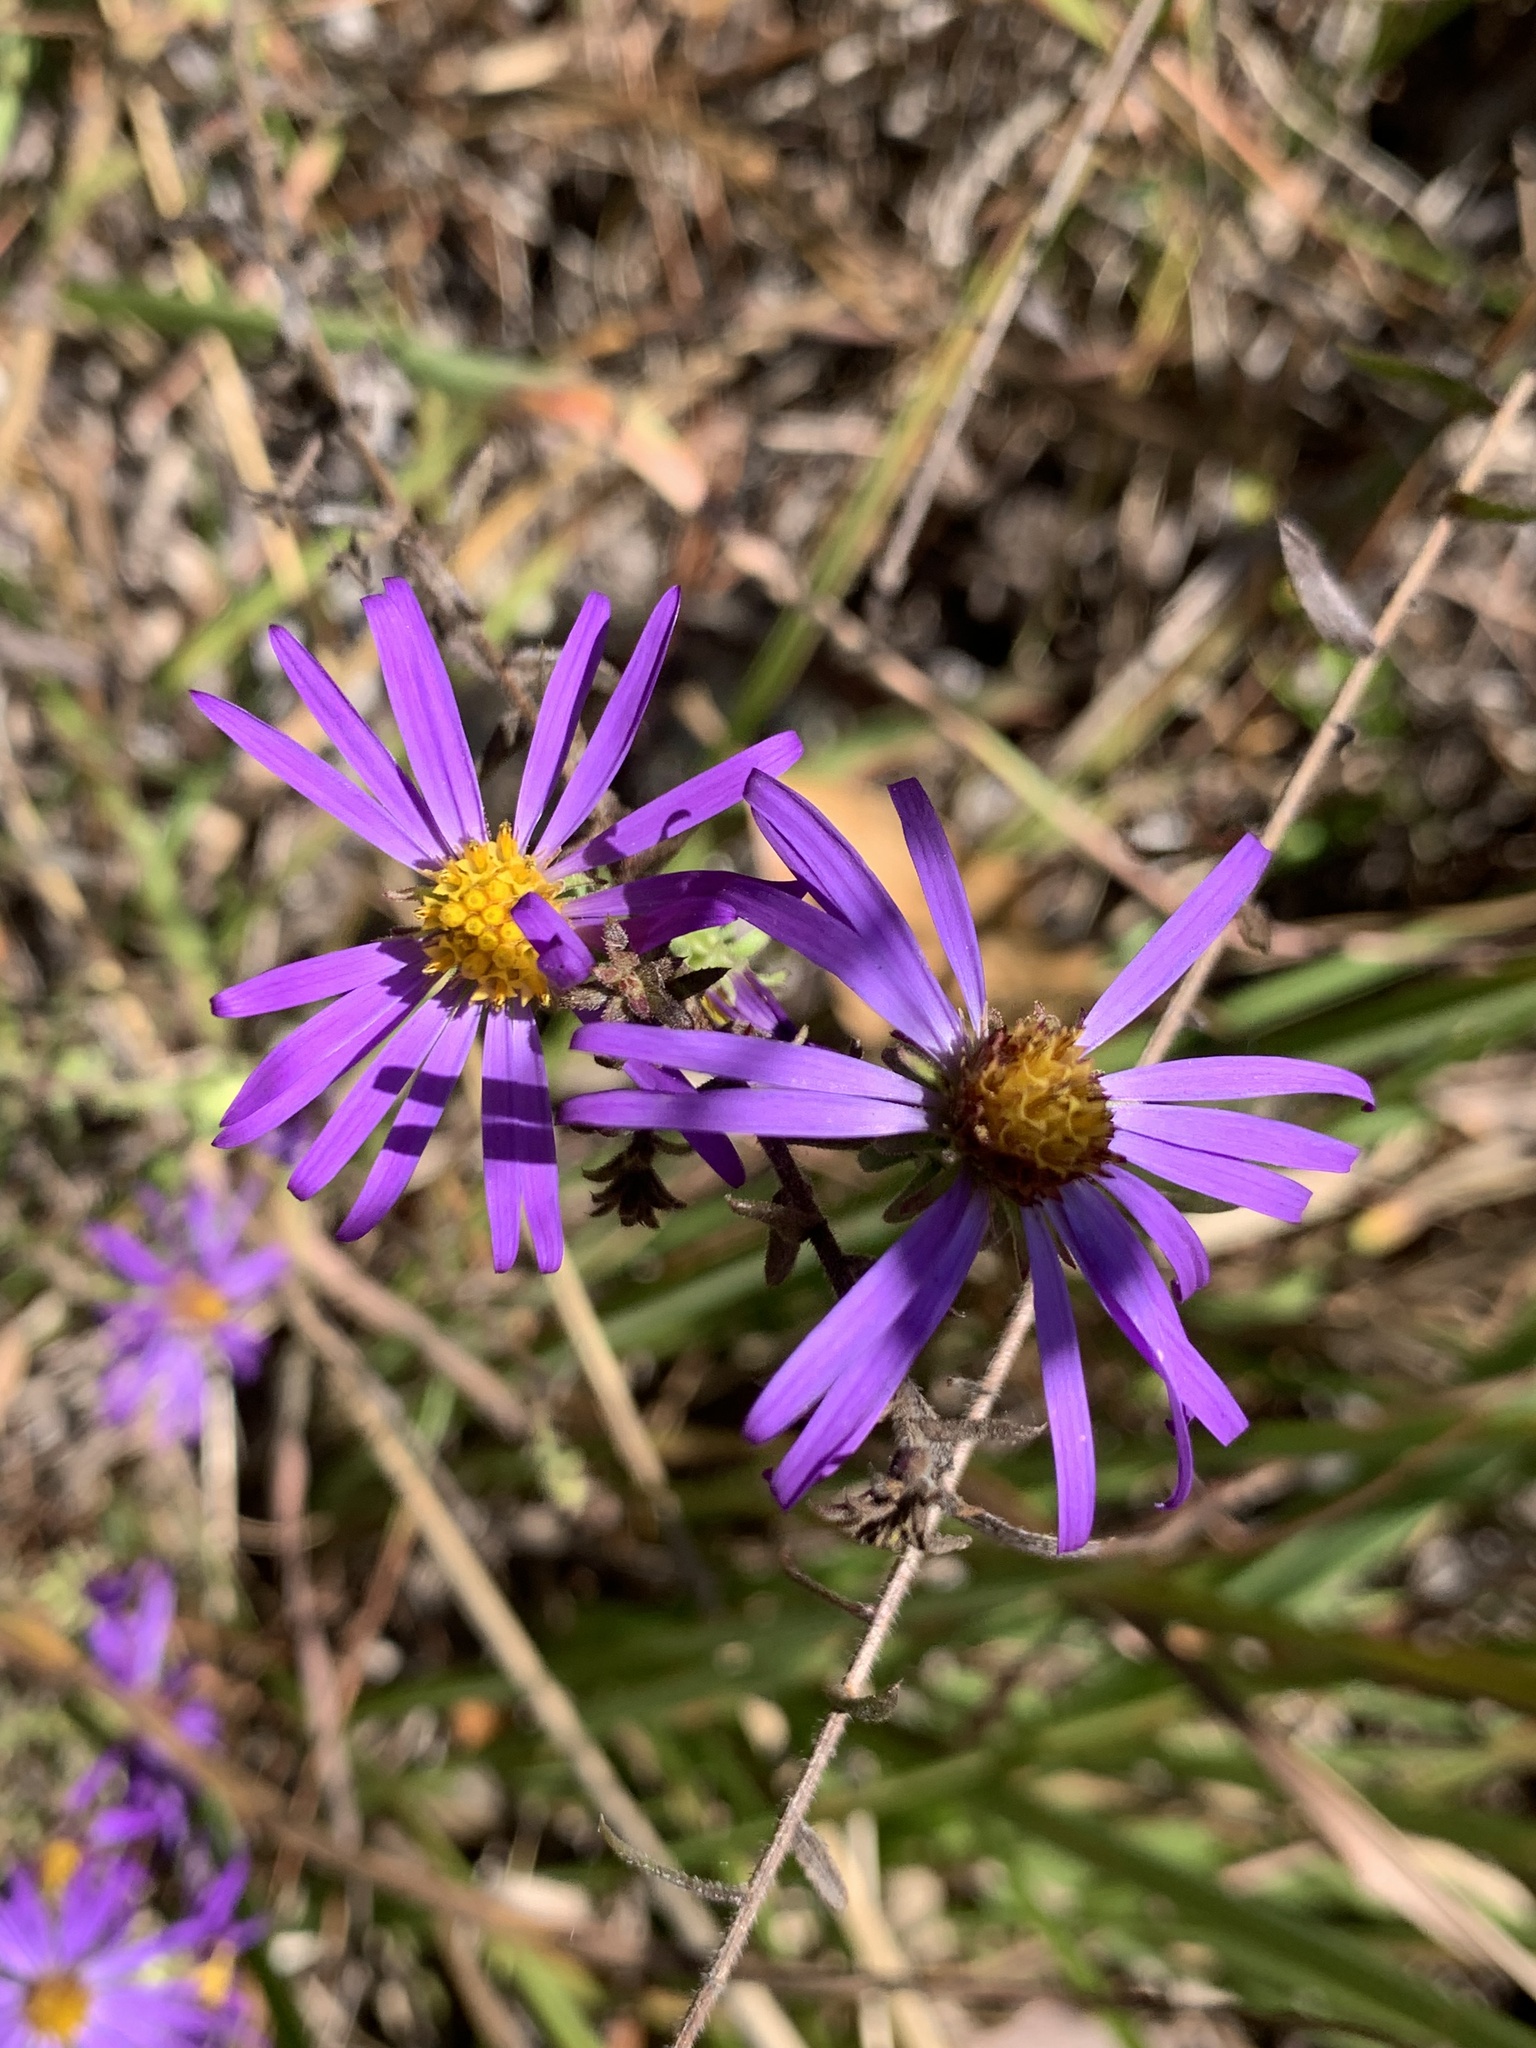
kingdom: Plantae
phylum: Tracheophyta
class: Magnoliopsida
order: Asterales
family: Asteraceae
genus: Symphyotrichum
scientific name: Symphyotrichum grandiflorum
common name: Big-head aster
